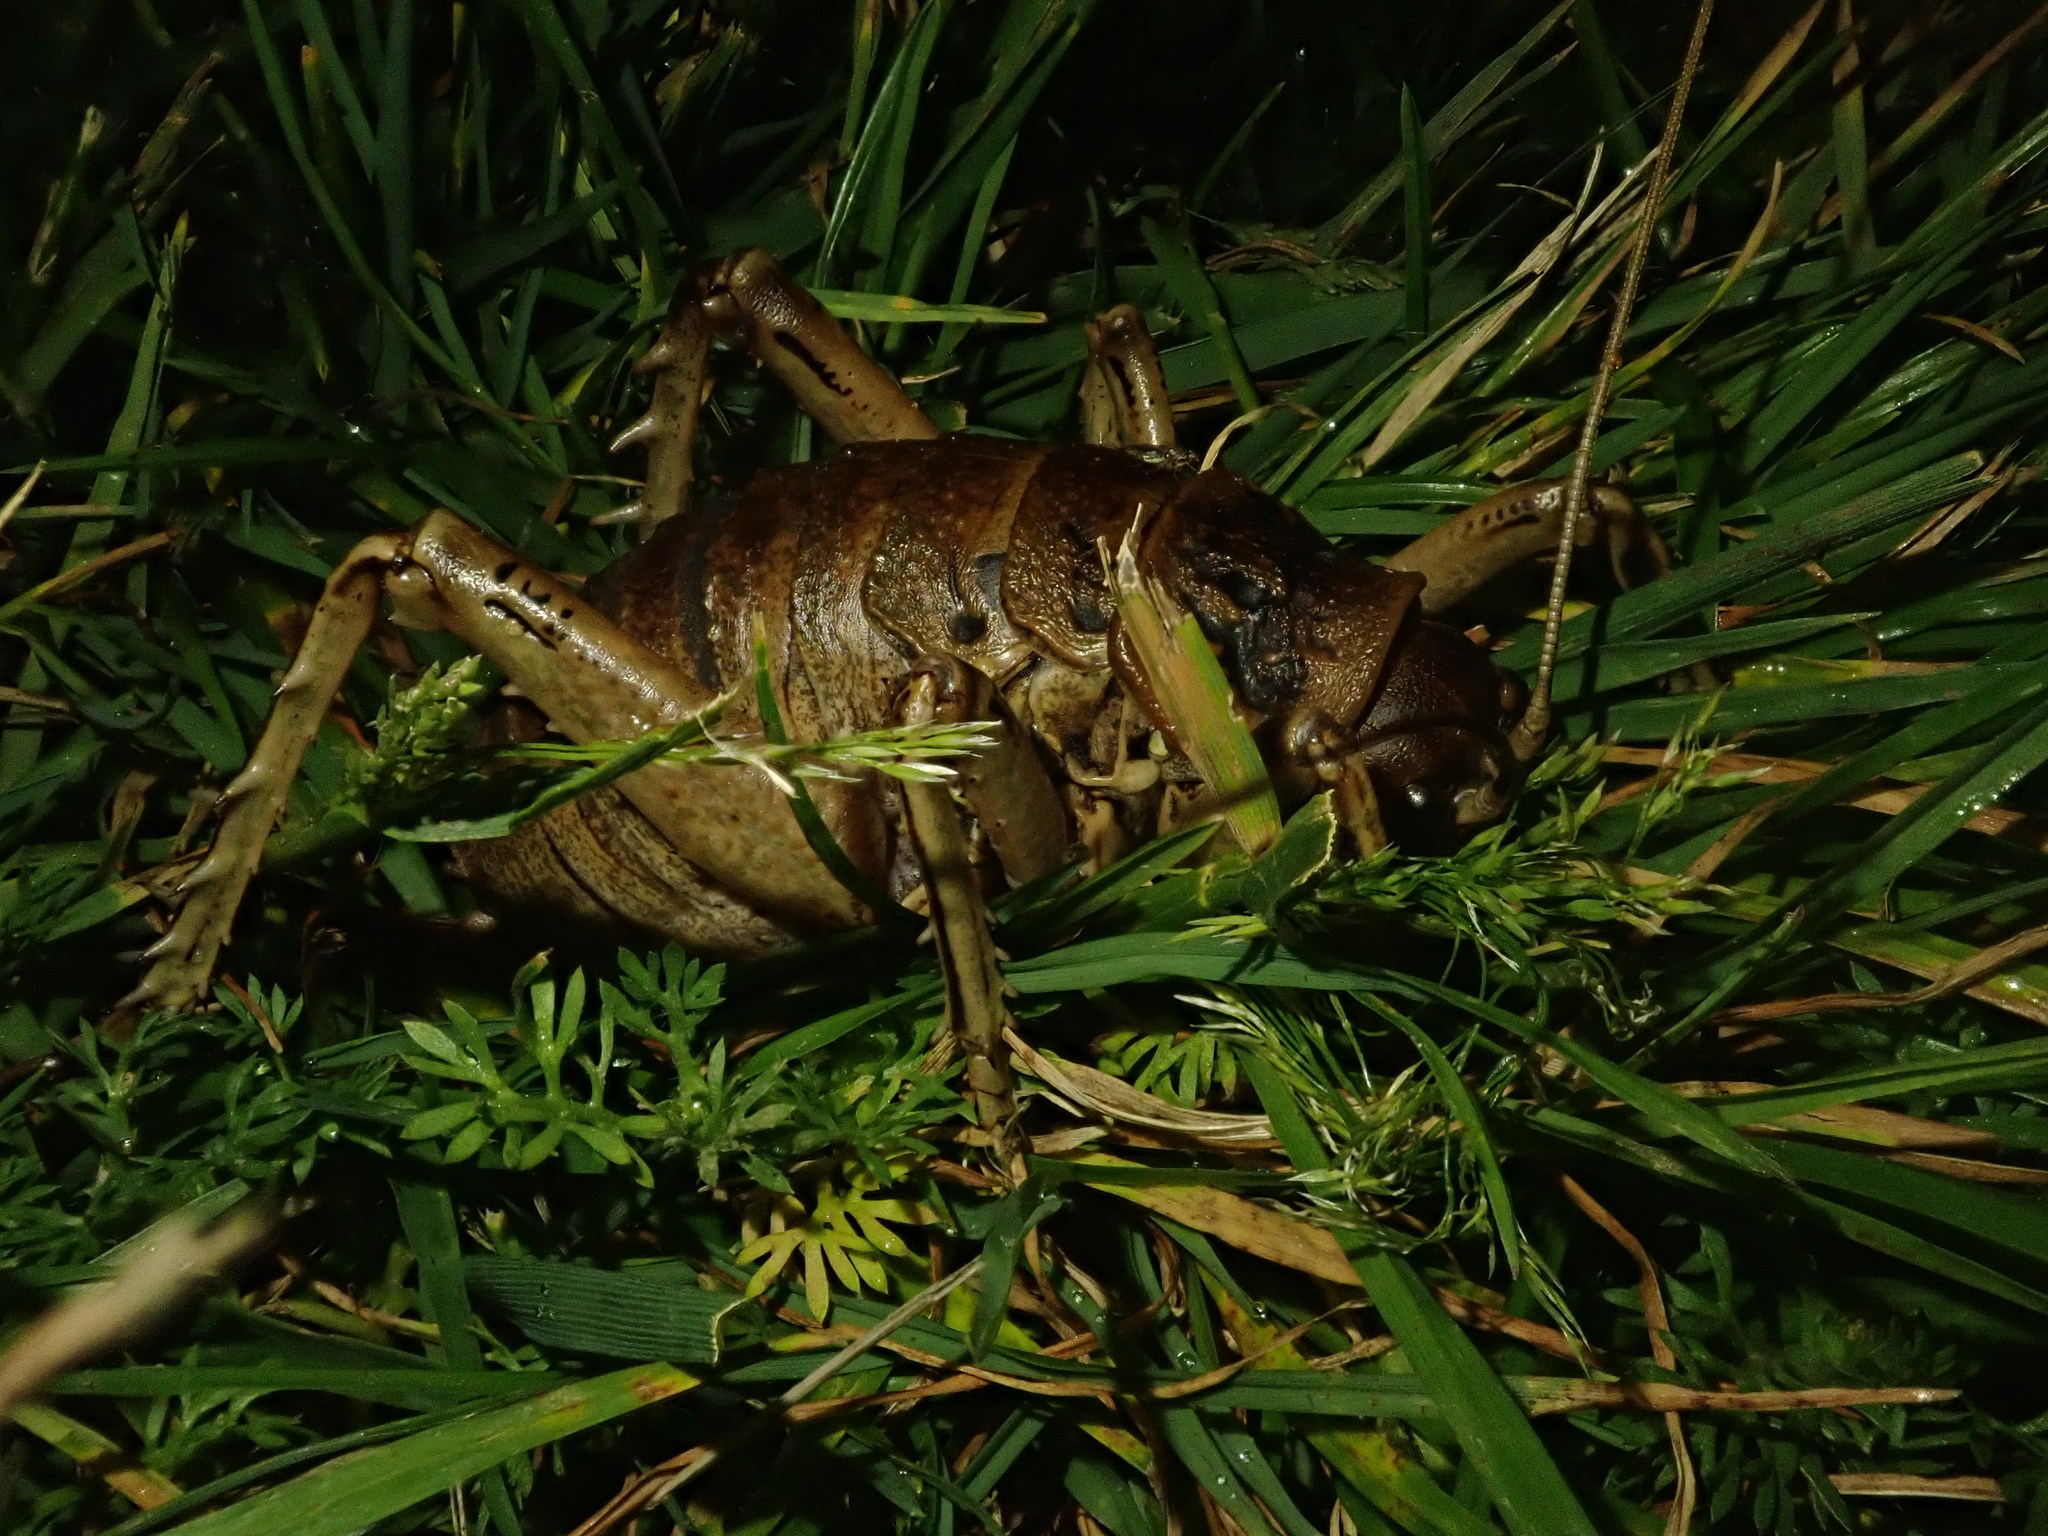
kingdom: Animalia
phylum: Arthropoda
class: Insecta
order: Orthoptera
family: Anostostomatidae
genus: Deinacrida
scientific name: Deinacrida rugosa
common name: Stephens island weta
